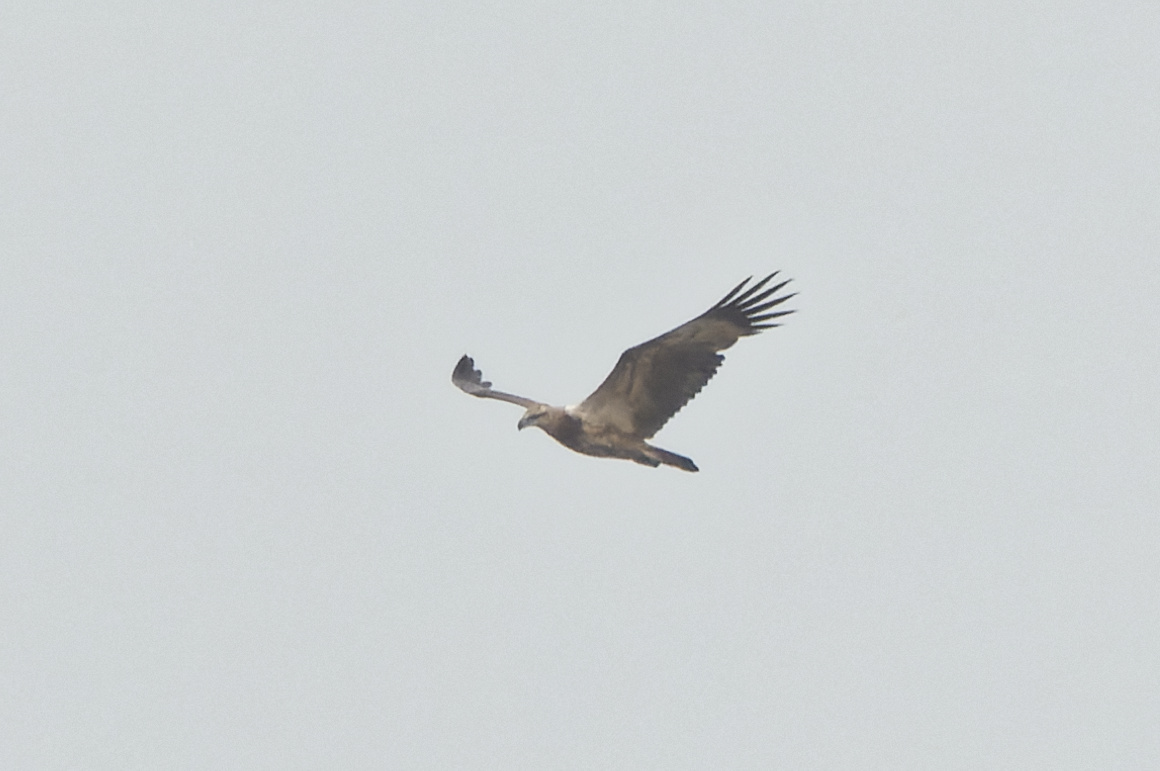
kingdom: Animalia
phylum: Chordata
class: Aves
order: Accipitriformes
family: Accipitridae
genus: Haliaeetus
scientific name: Haliaeetus leucogaster
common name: White-bellied sea eagle
